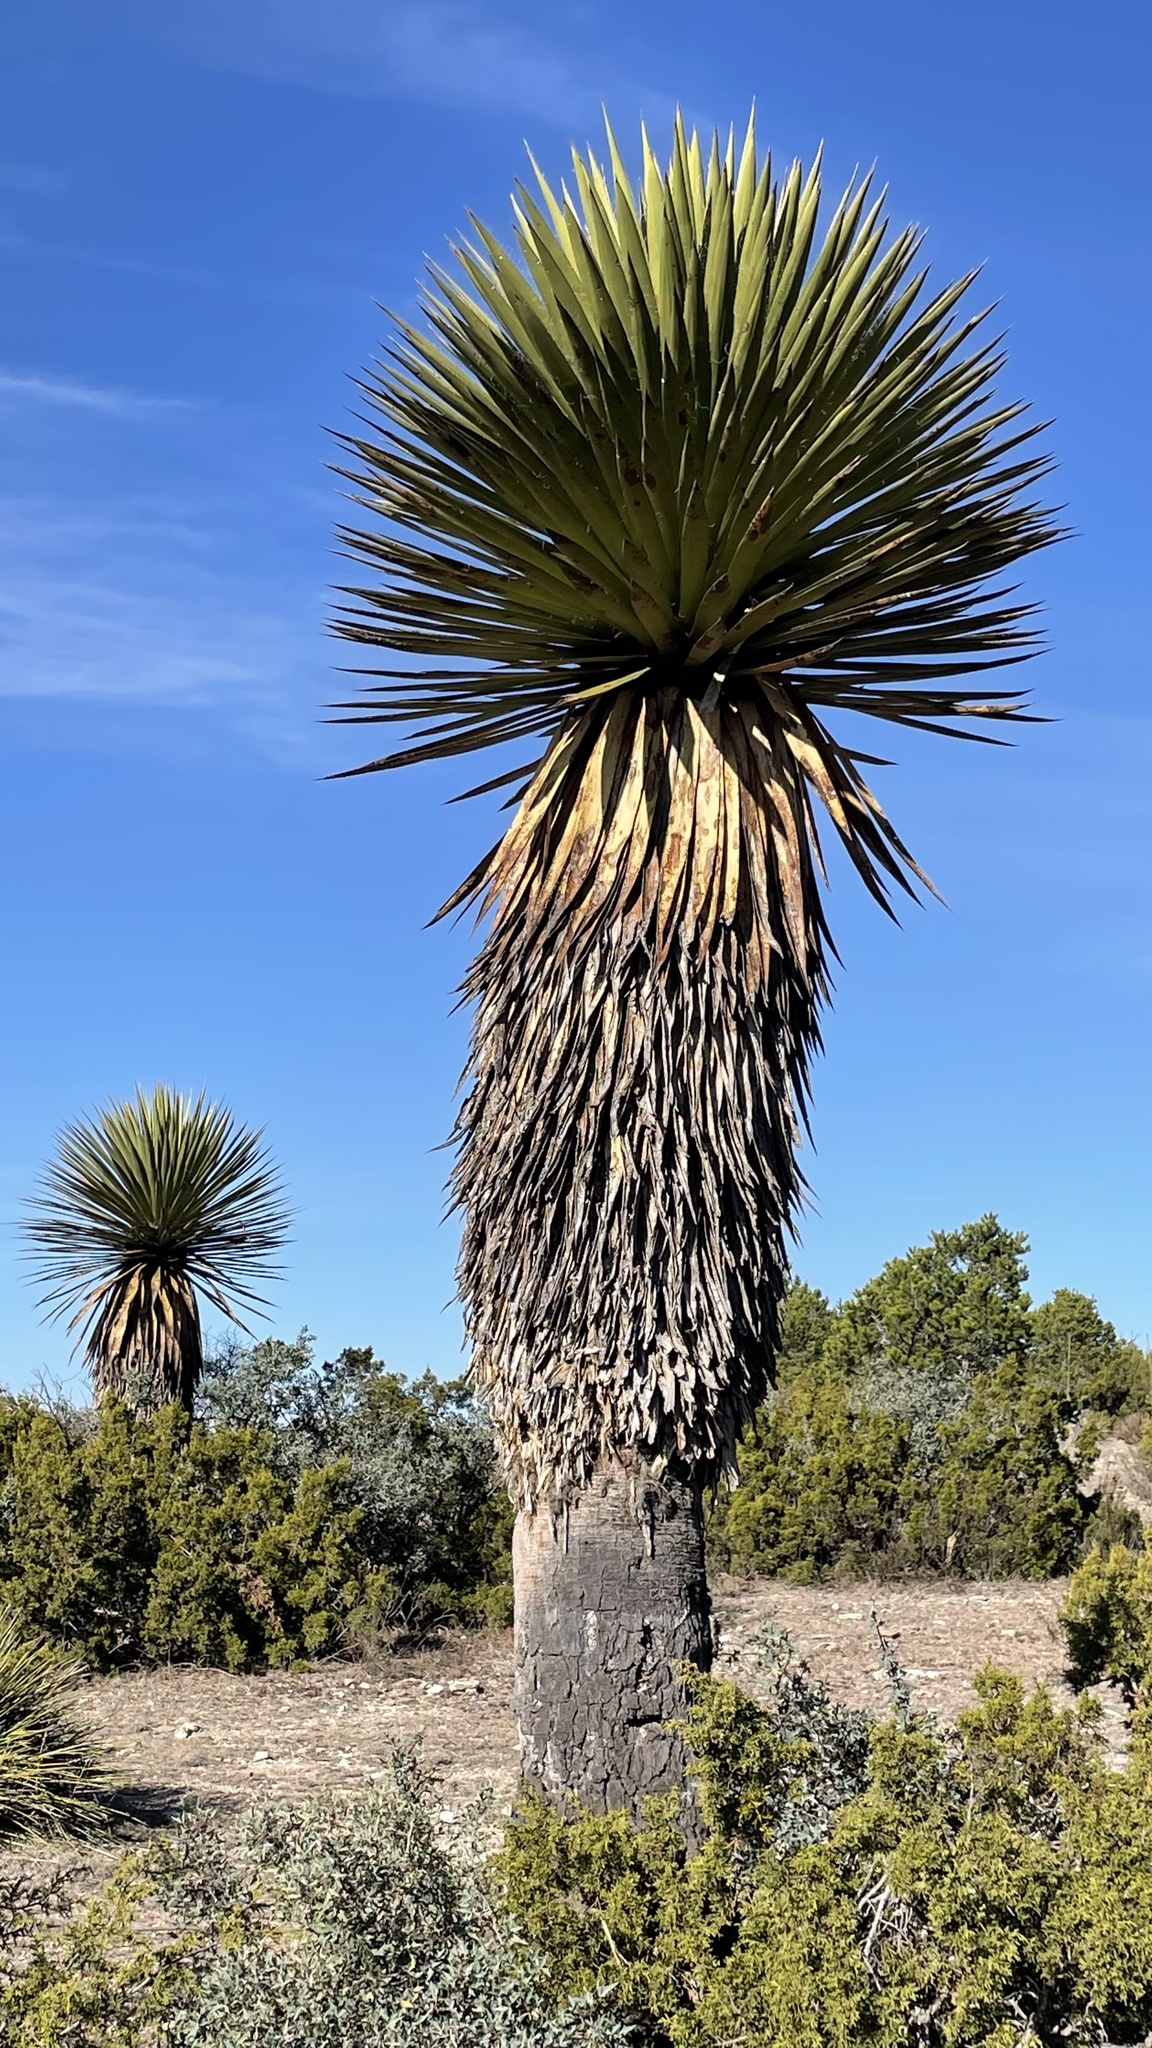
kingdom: Plantae
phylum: Tracheophyta
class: Liliopsida
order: Asparagales
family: Asparagaceae
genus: Yucca
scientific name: Yucca carnerosana
